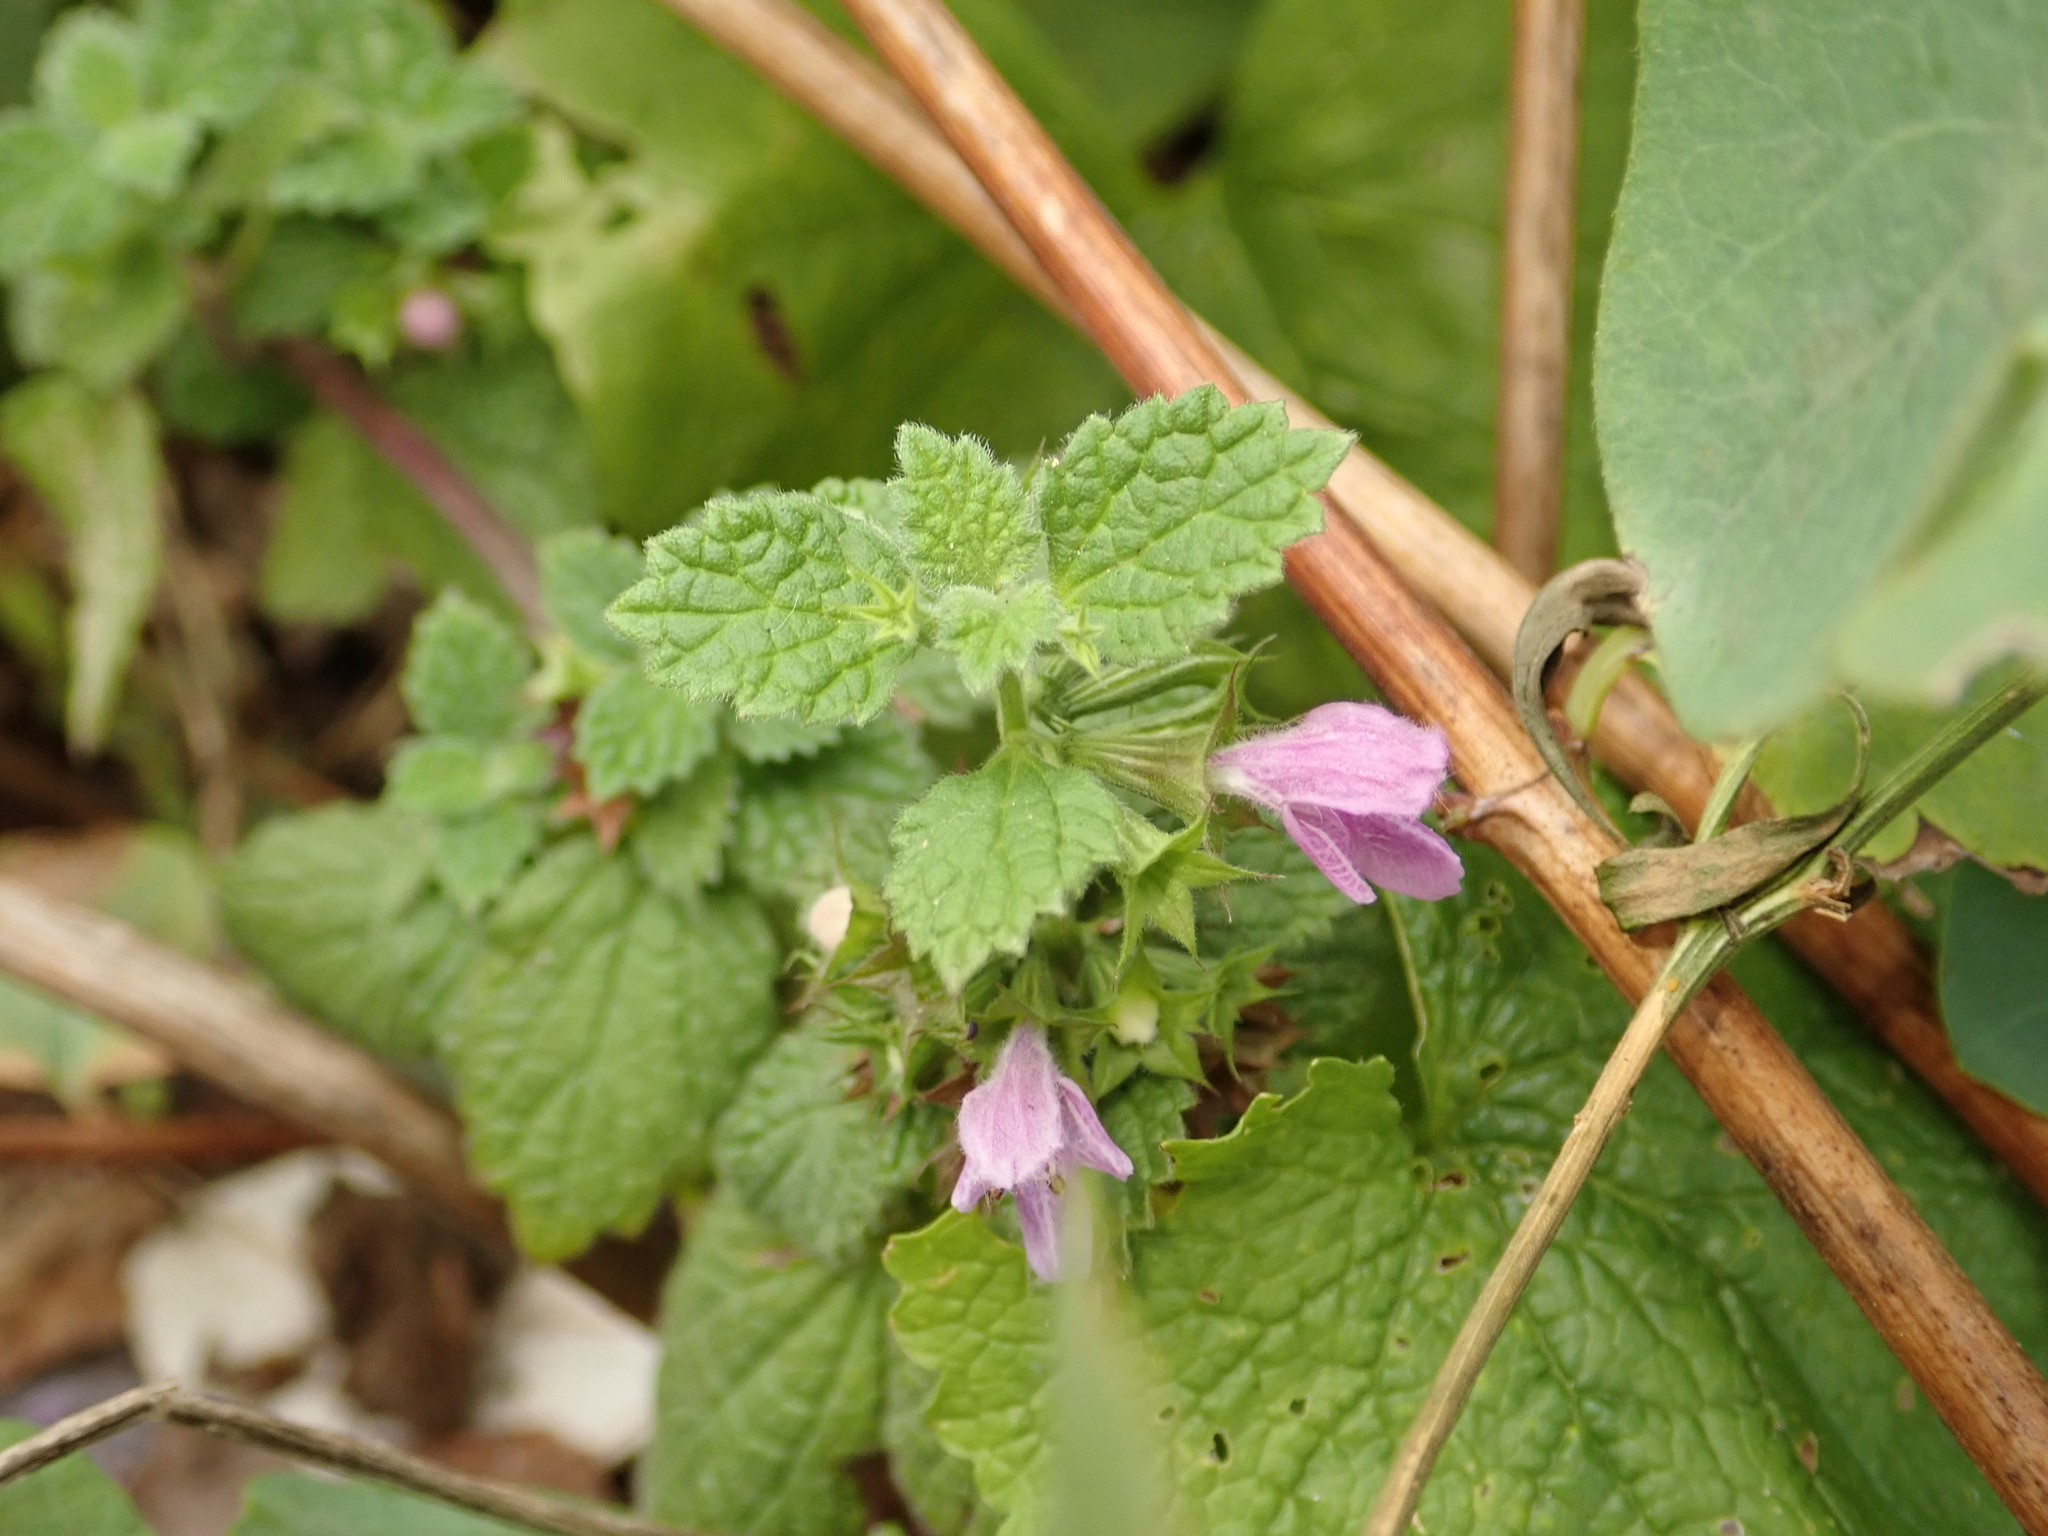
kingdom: Plantae
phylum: Tracheophyta
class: Magnoliopsida
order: Lamiales
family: Lamiaceae
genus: Ballota
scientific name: Ballota nigra
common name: Black horehound
